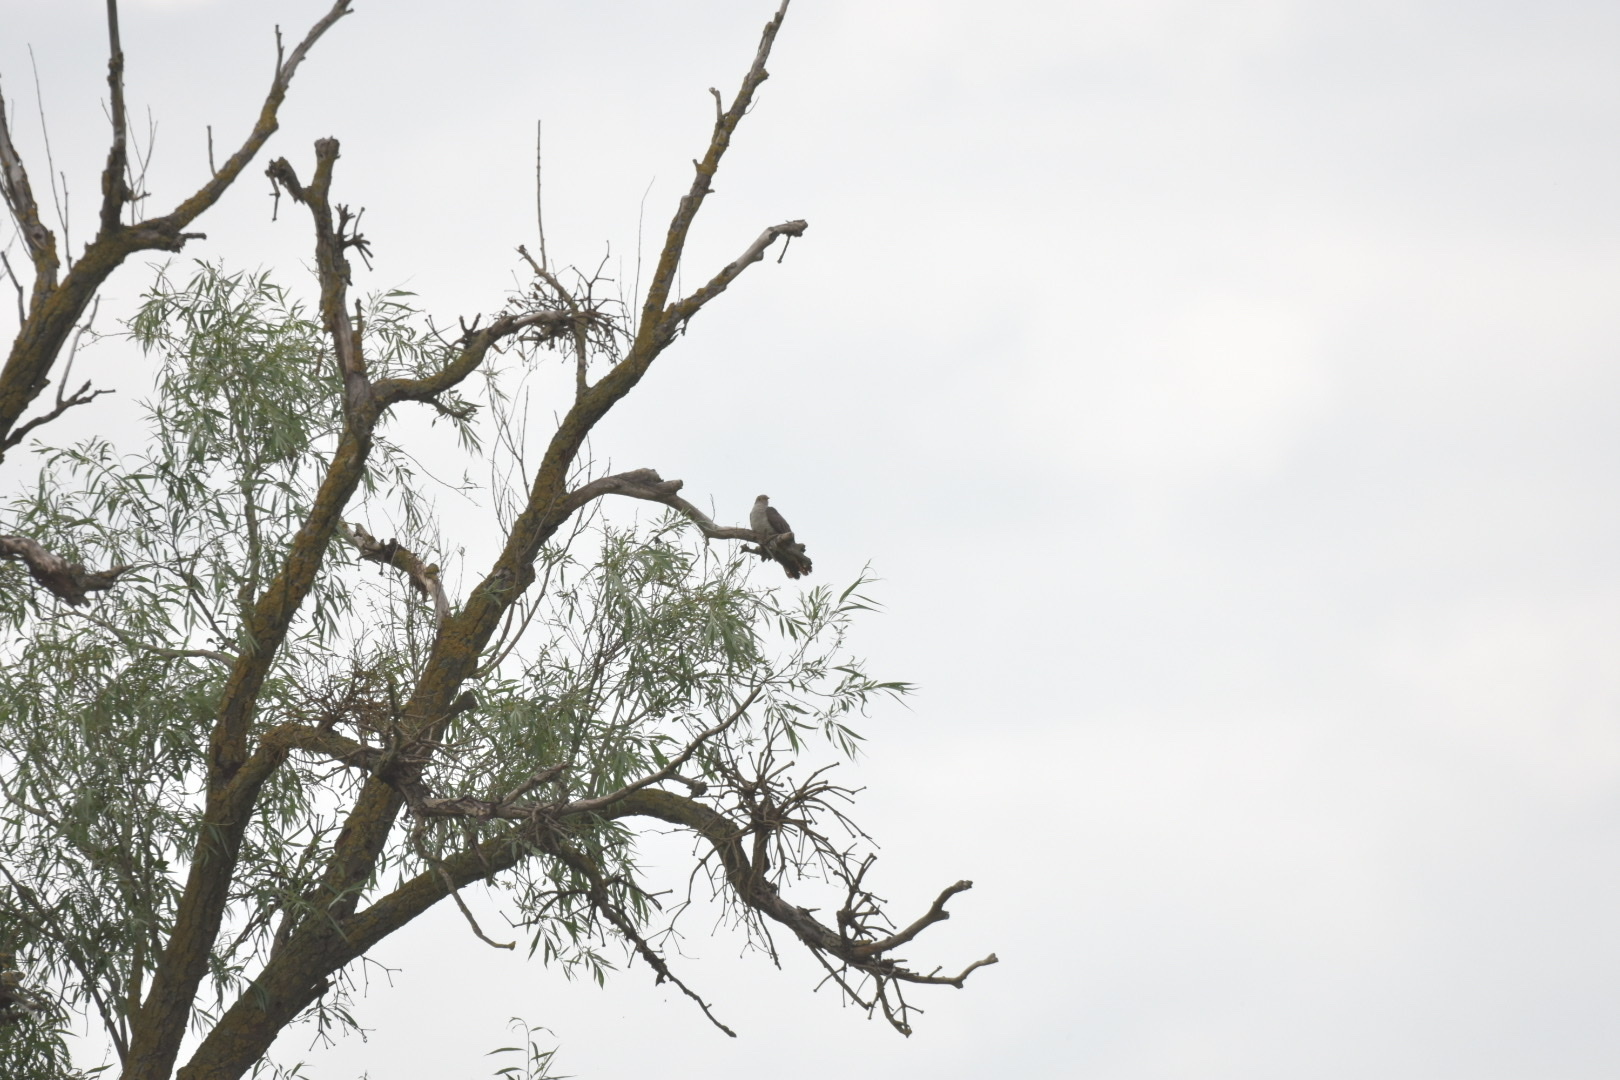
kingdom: Animalia
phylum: Chordata
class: Aves
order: Cuculiformes
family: Cuculidae
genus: Cuculus
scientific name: Cuculus canorus
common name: Common cuckoo
